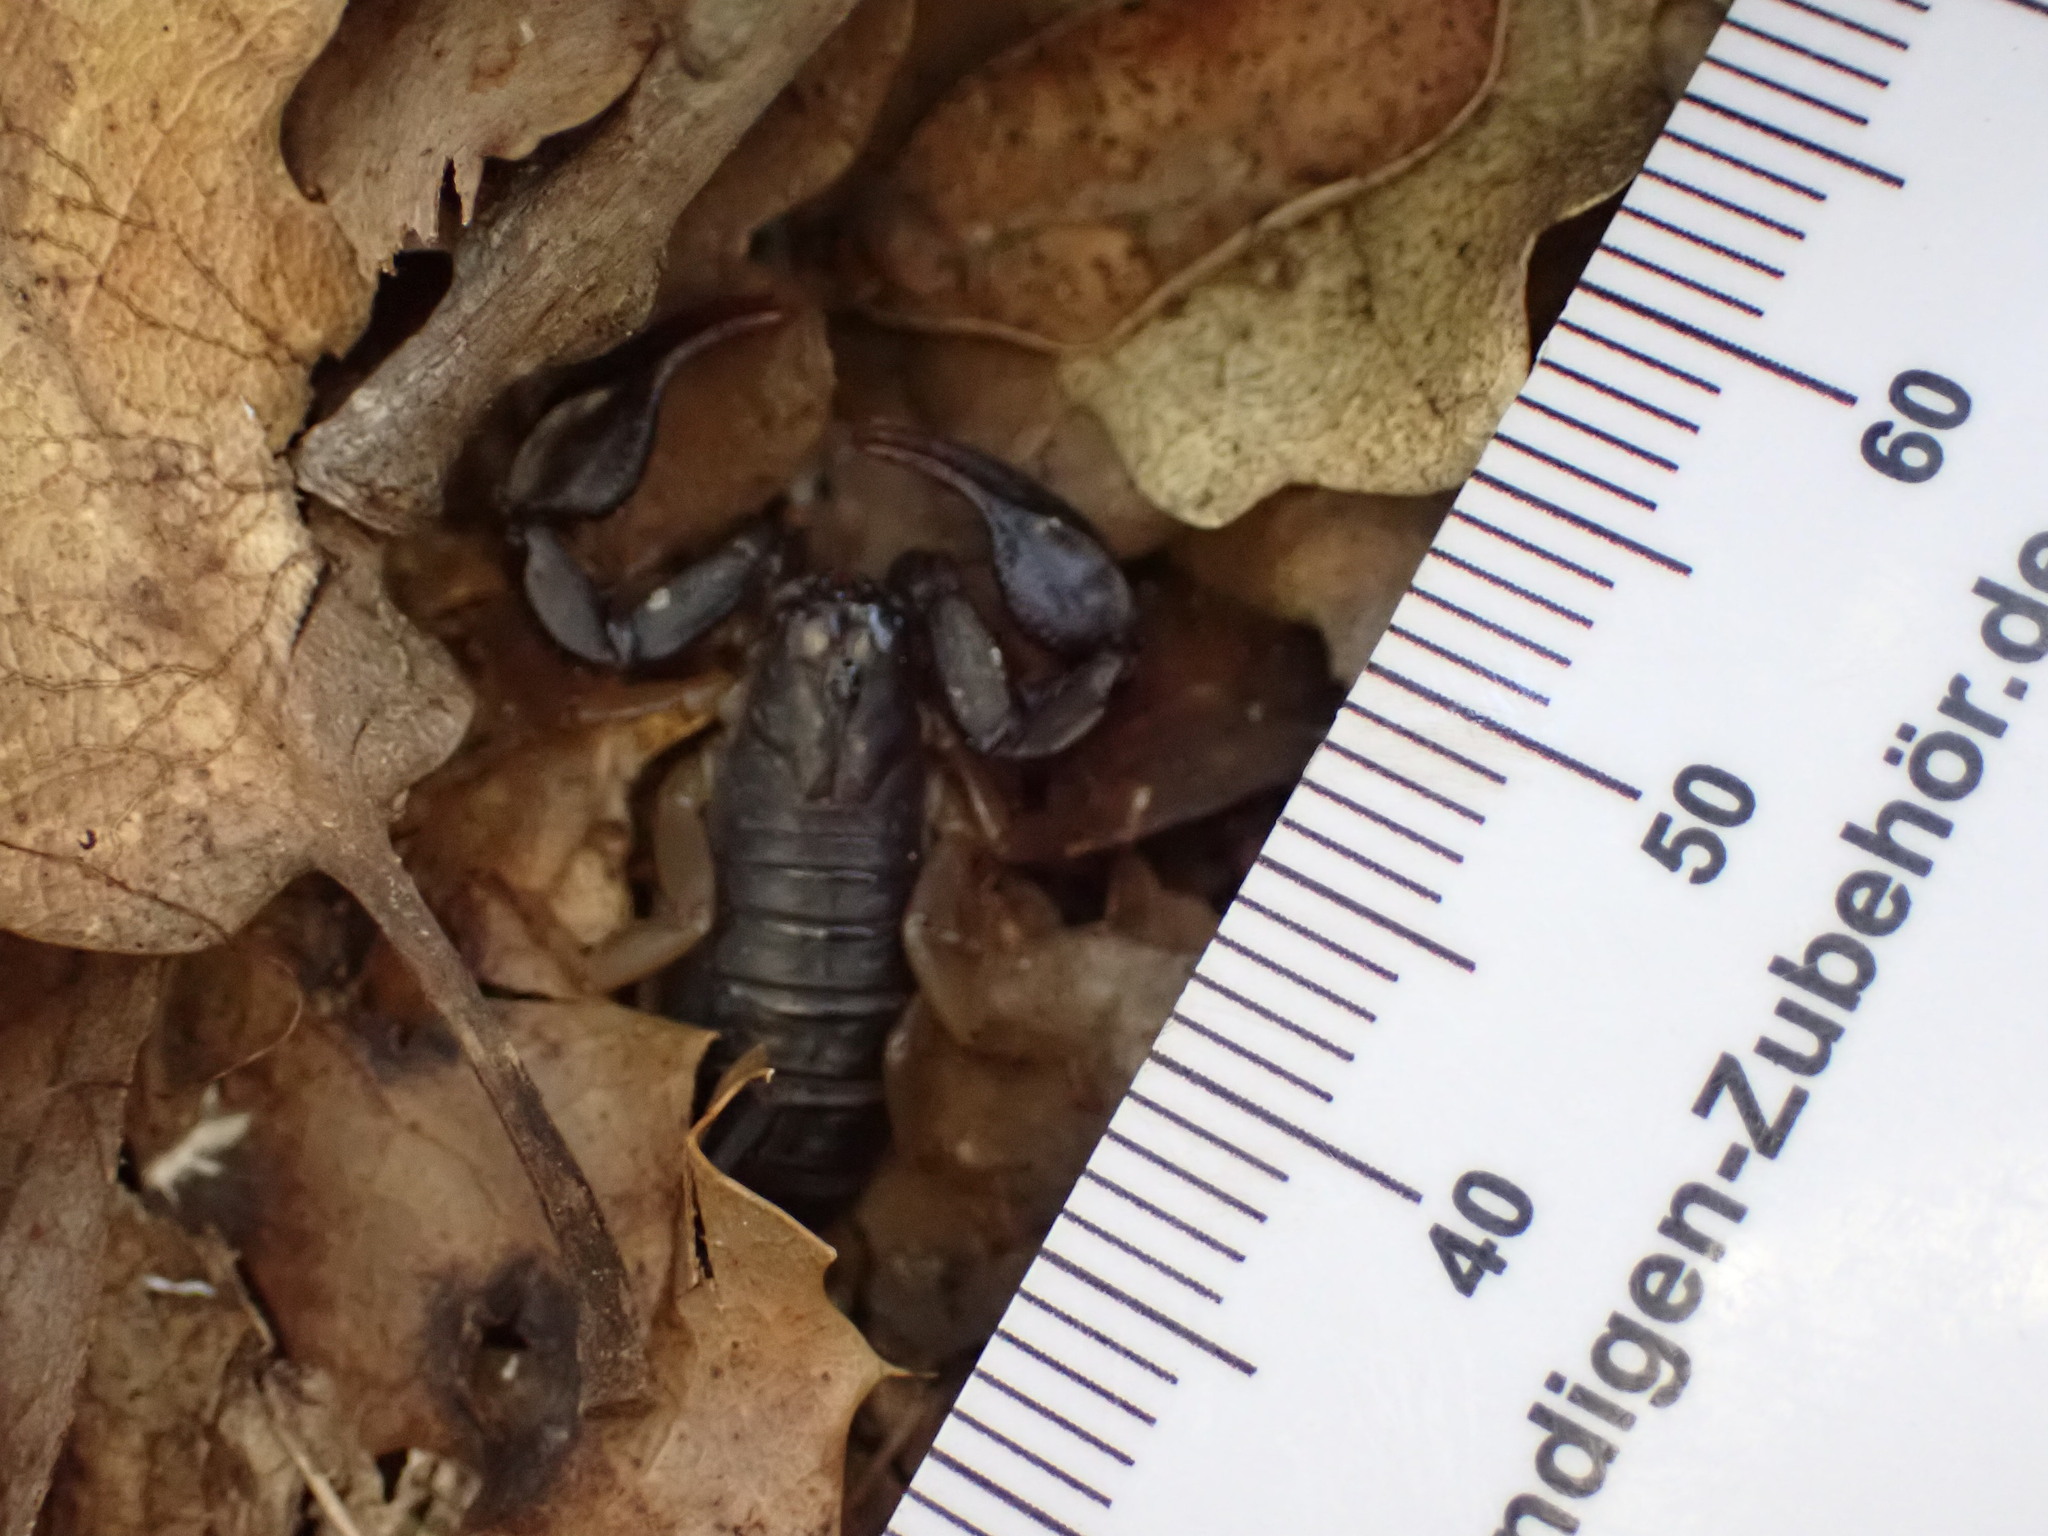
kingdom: Animalia
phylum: Arthropoda
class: Arachnida
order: Scorpiones
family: Euscorpiidae
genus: Euscorpius
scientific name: Euscorpius
